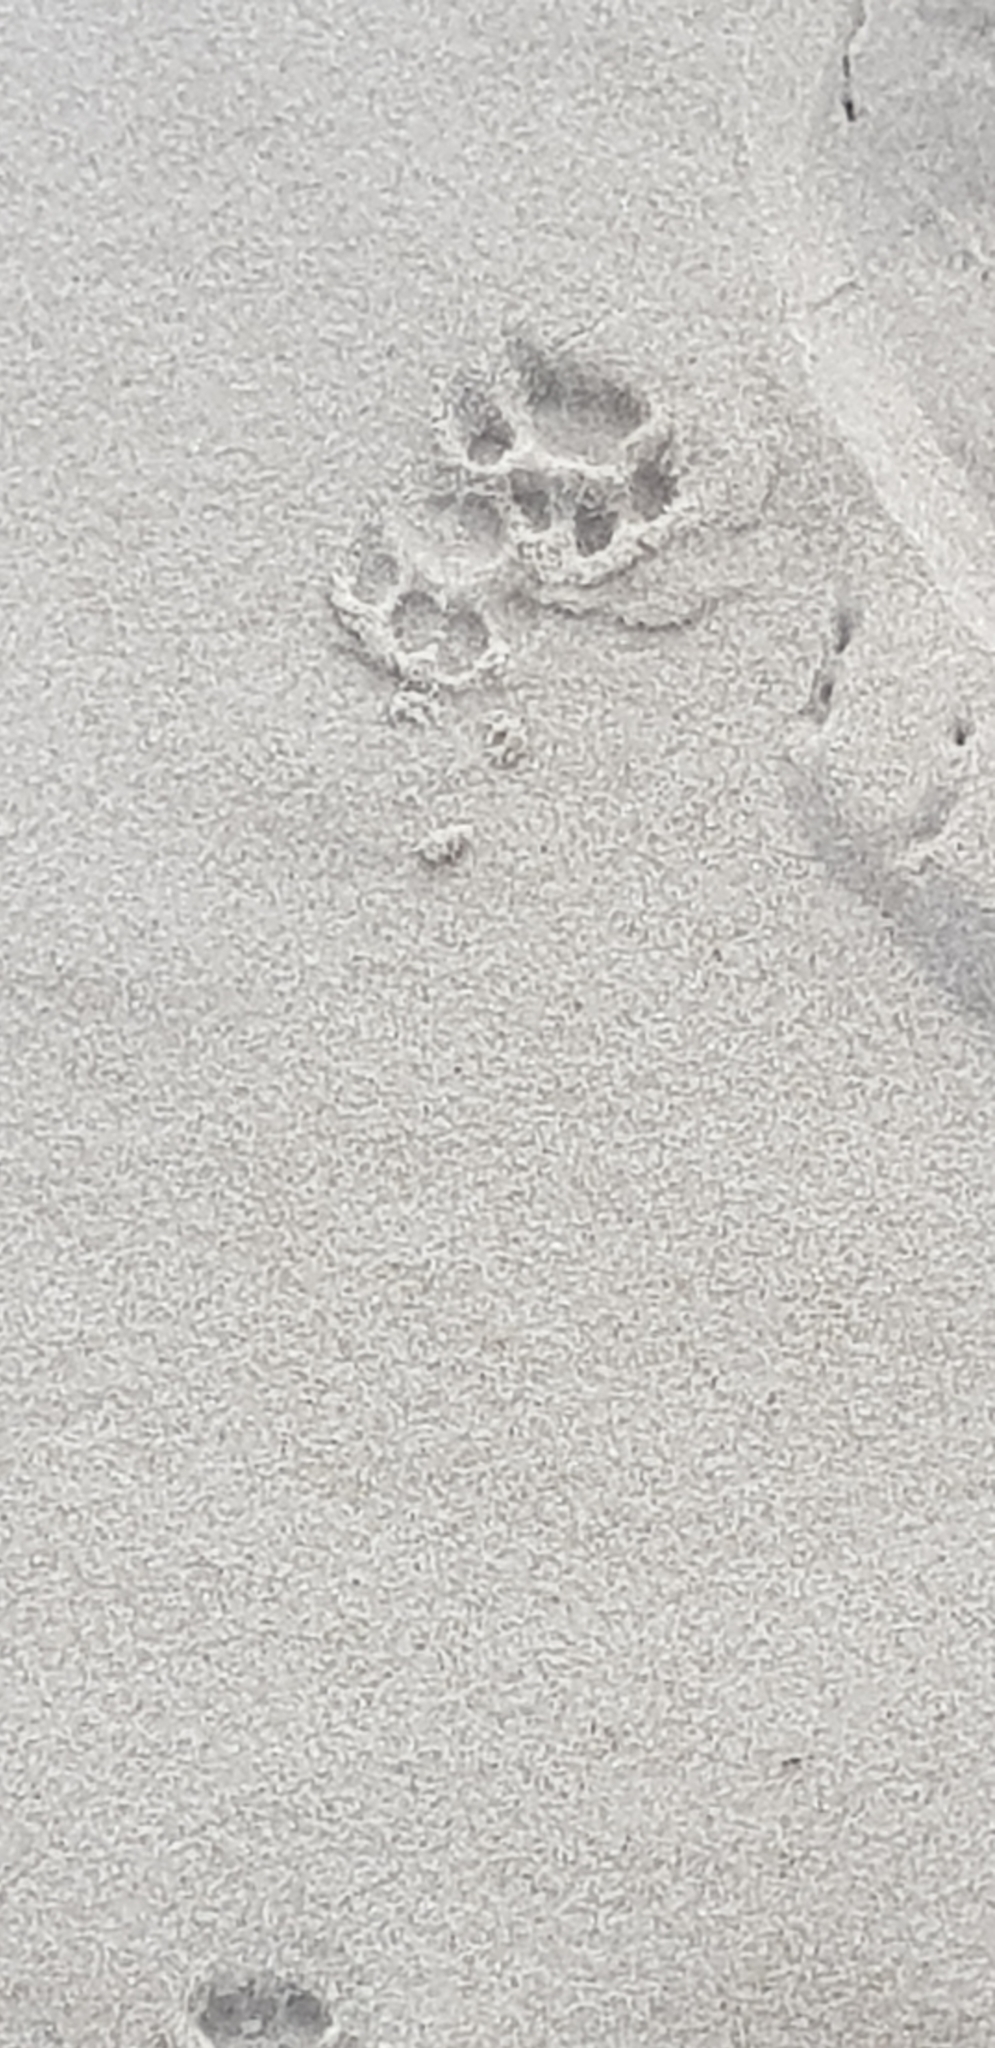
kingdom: Animalia
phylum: Chordata
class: Mammalia
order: Carnivora
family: Felidae
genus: Felis
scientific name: Felis catus
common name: Domestic cat
